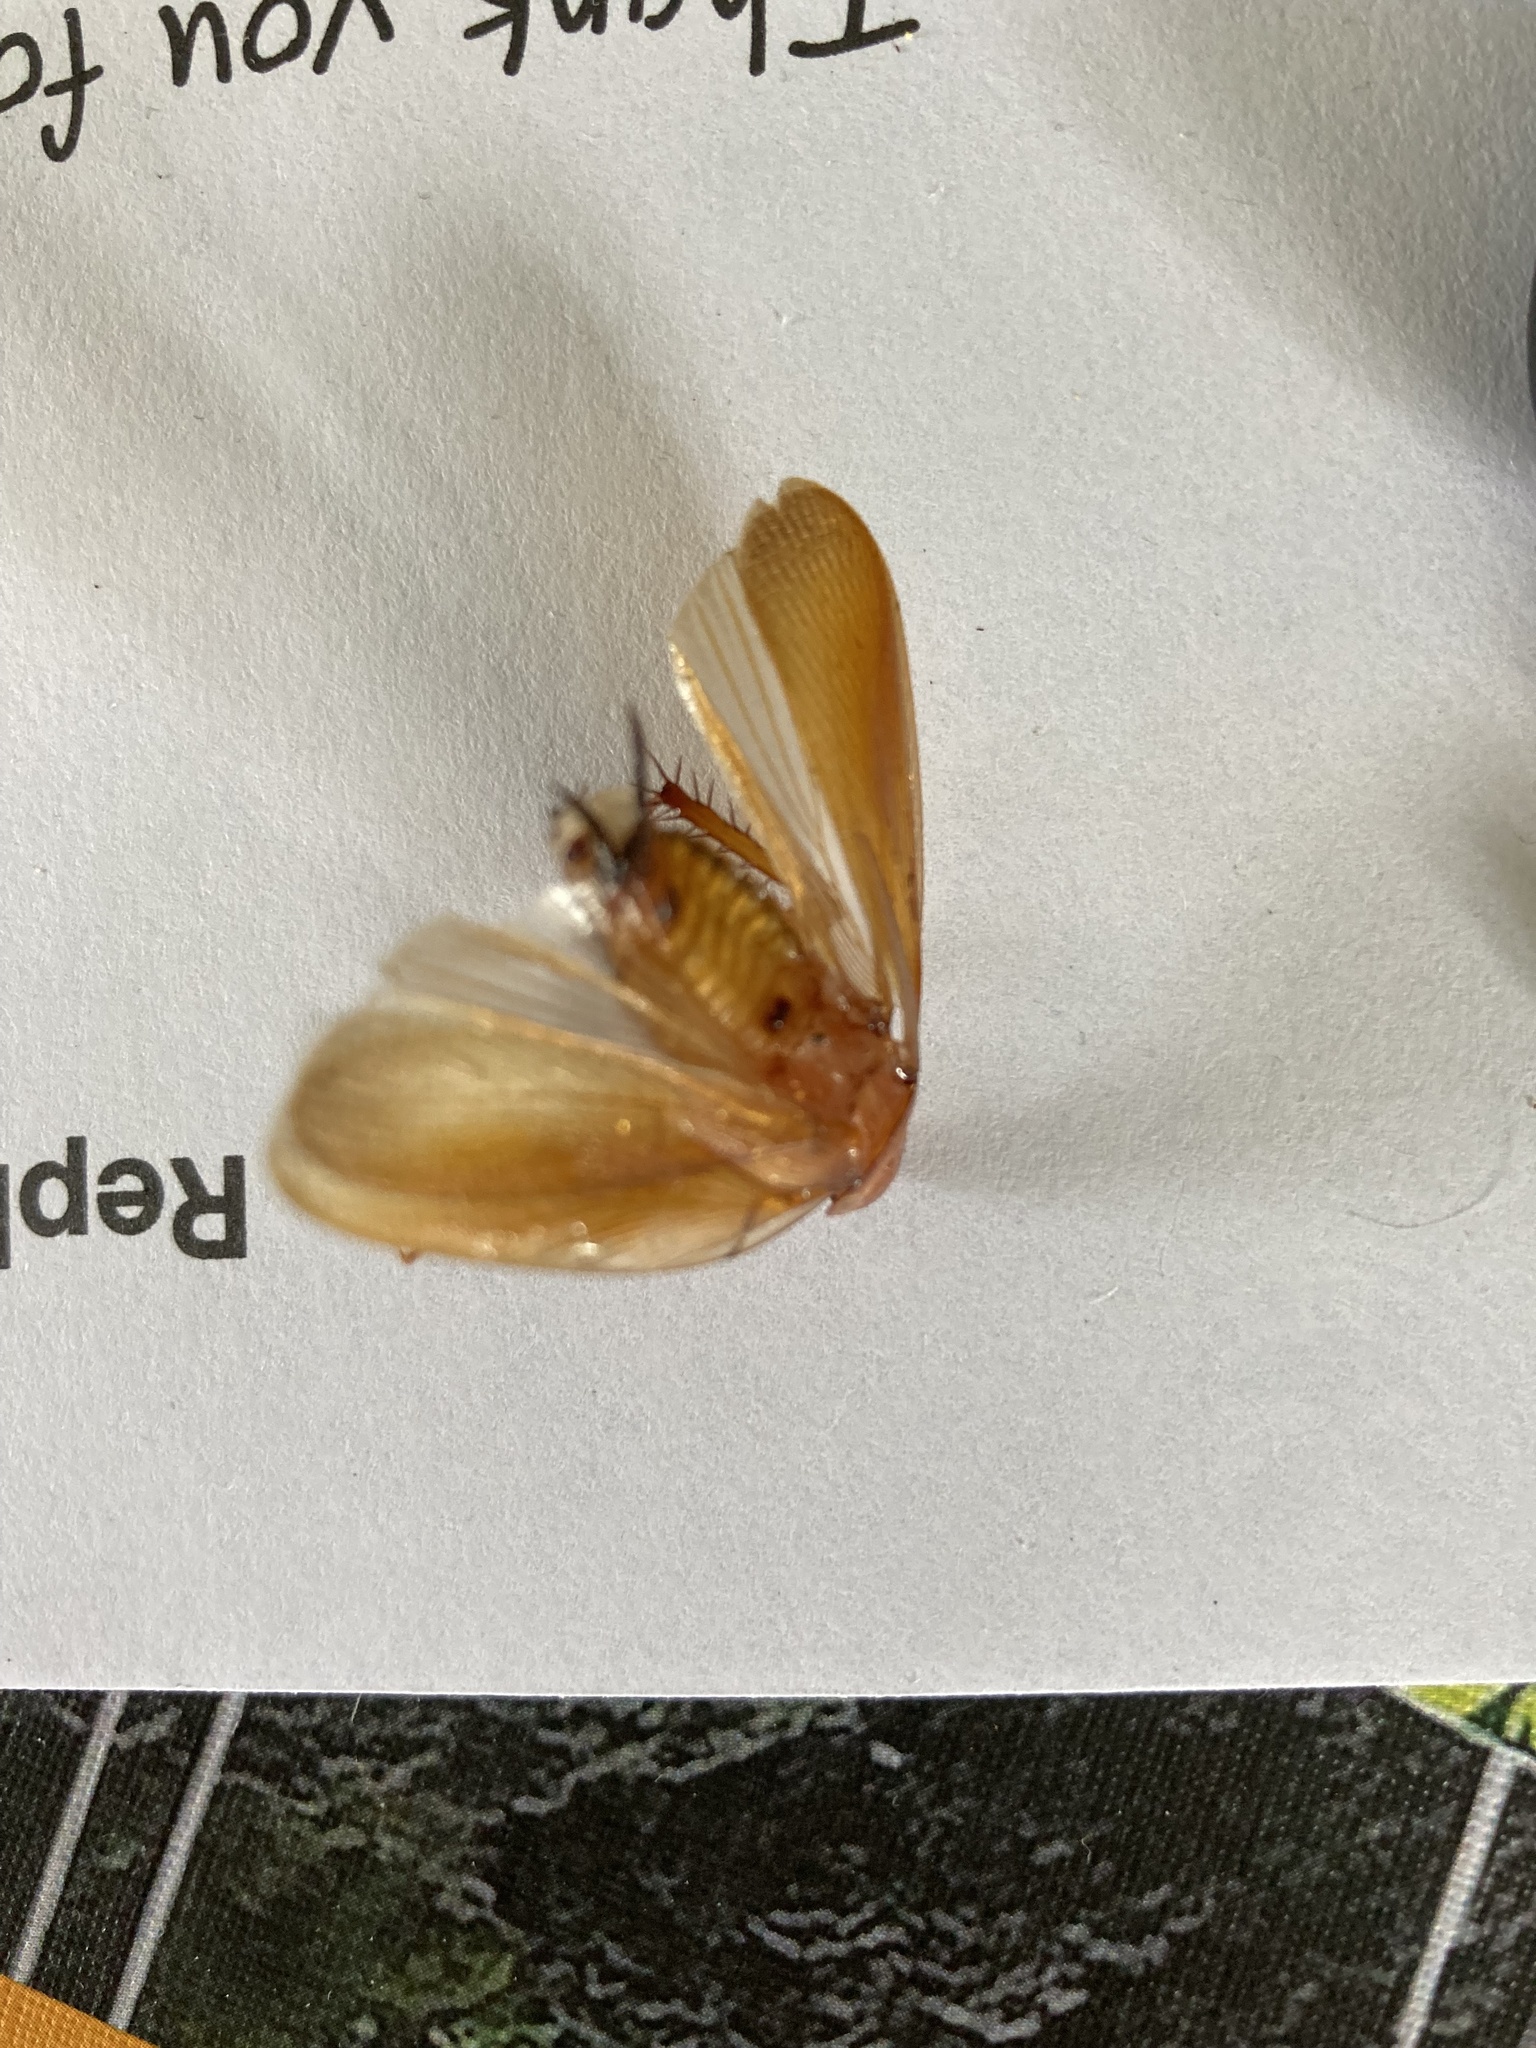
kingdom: Animalia
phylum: Arthropoda
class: Insecta
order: Blattodea
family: Ectobiidae
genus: Neotemnopteryx
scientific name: Neotemnopteryx fulva
